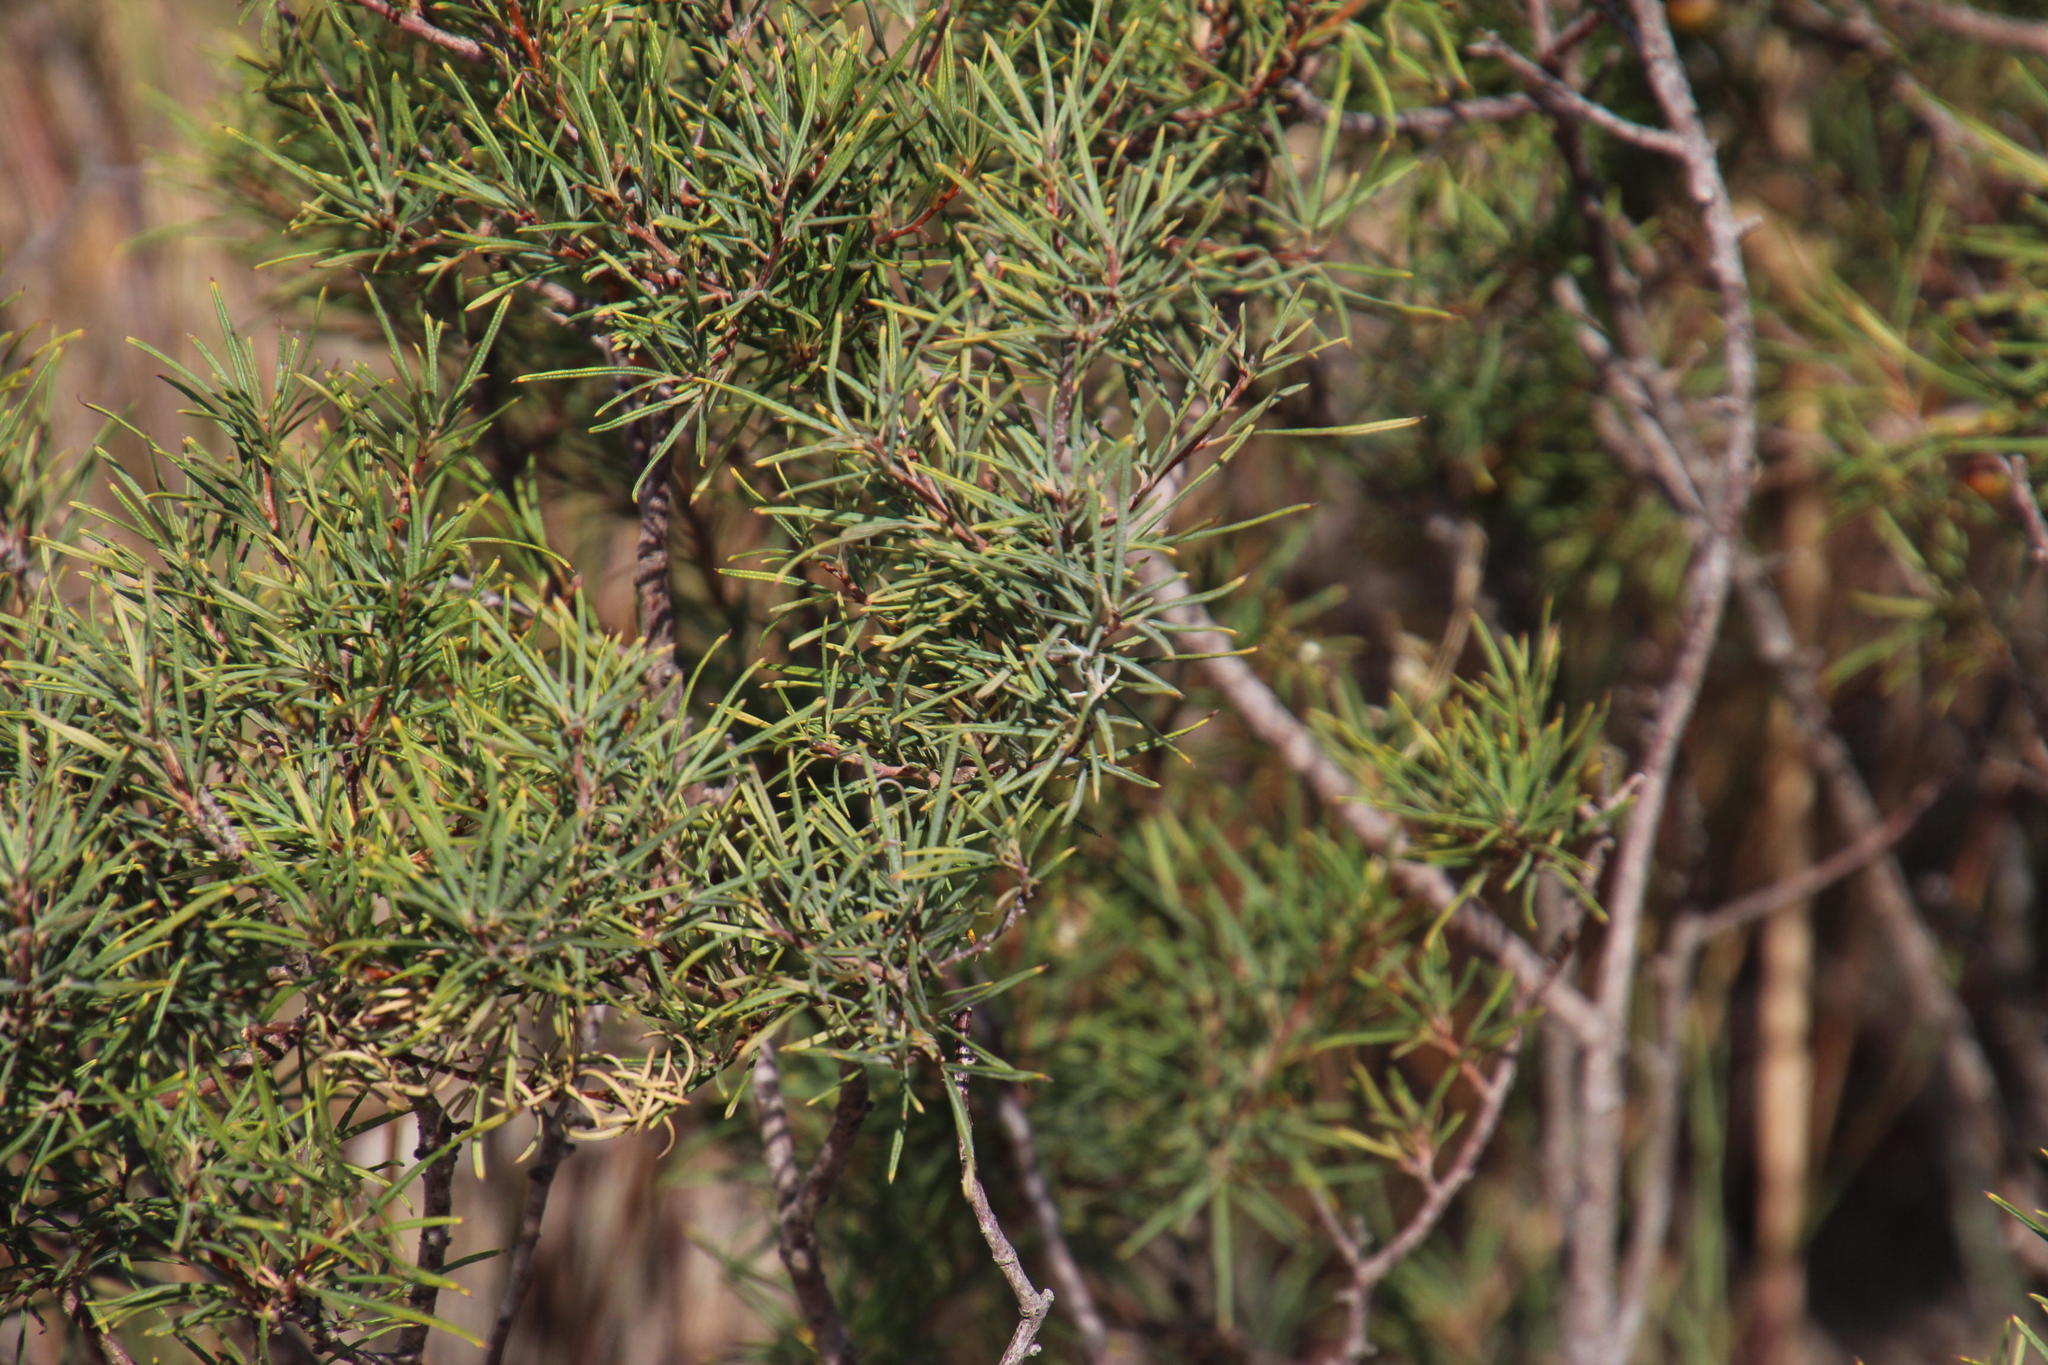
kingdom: Plantae
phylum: Tracheophyta
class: Magnoliopsida
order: Sapindales
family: Anacardiaceae
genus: Searsia
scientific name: Searsia rosmarinifolia
